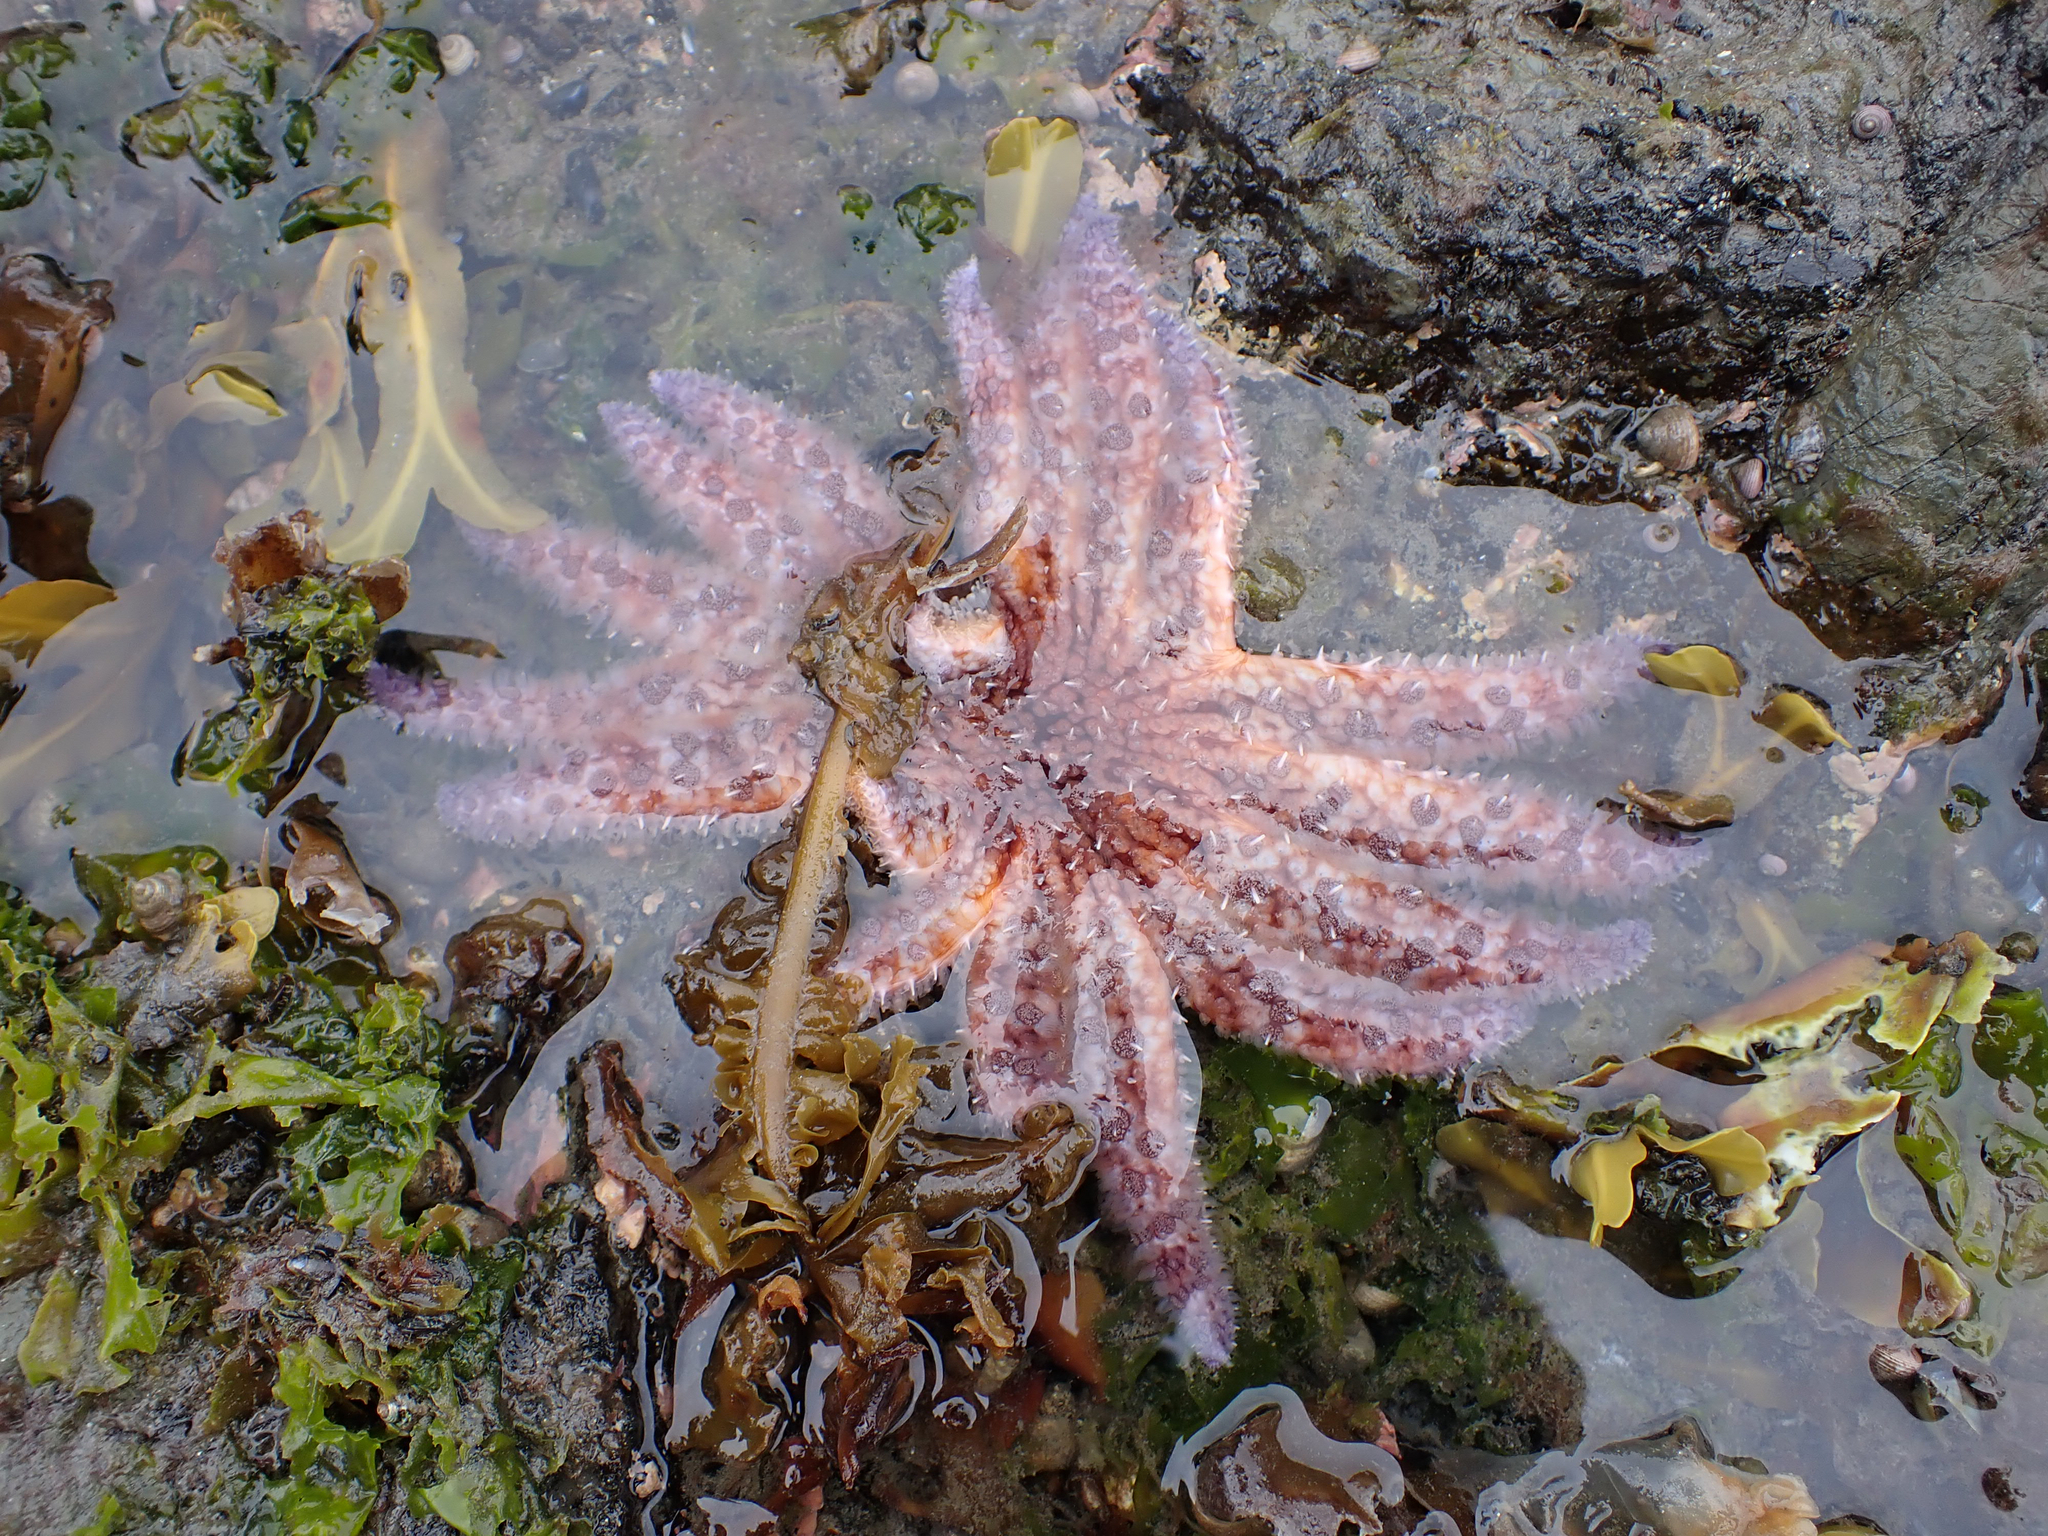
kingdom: Animalia
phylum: Echinodermata
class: Asteroidea
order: Forcipulatida
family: Asteriidae
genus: Pycnopodia
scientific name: Pycnopodia helianthoides
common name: Rag mop
